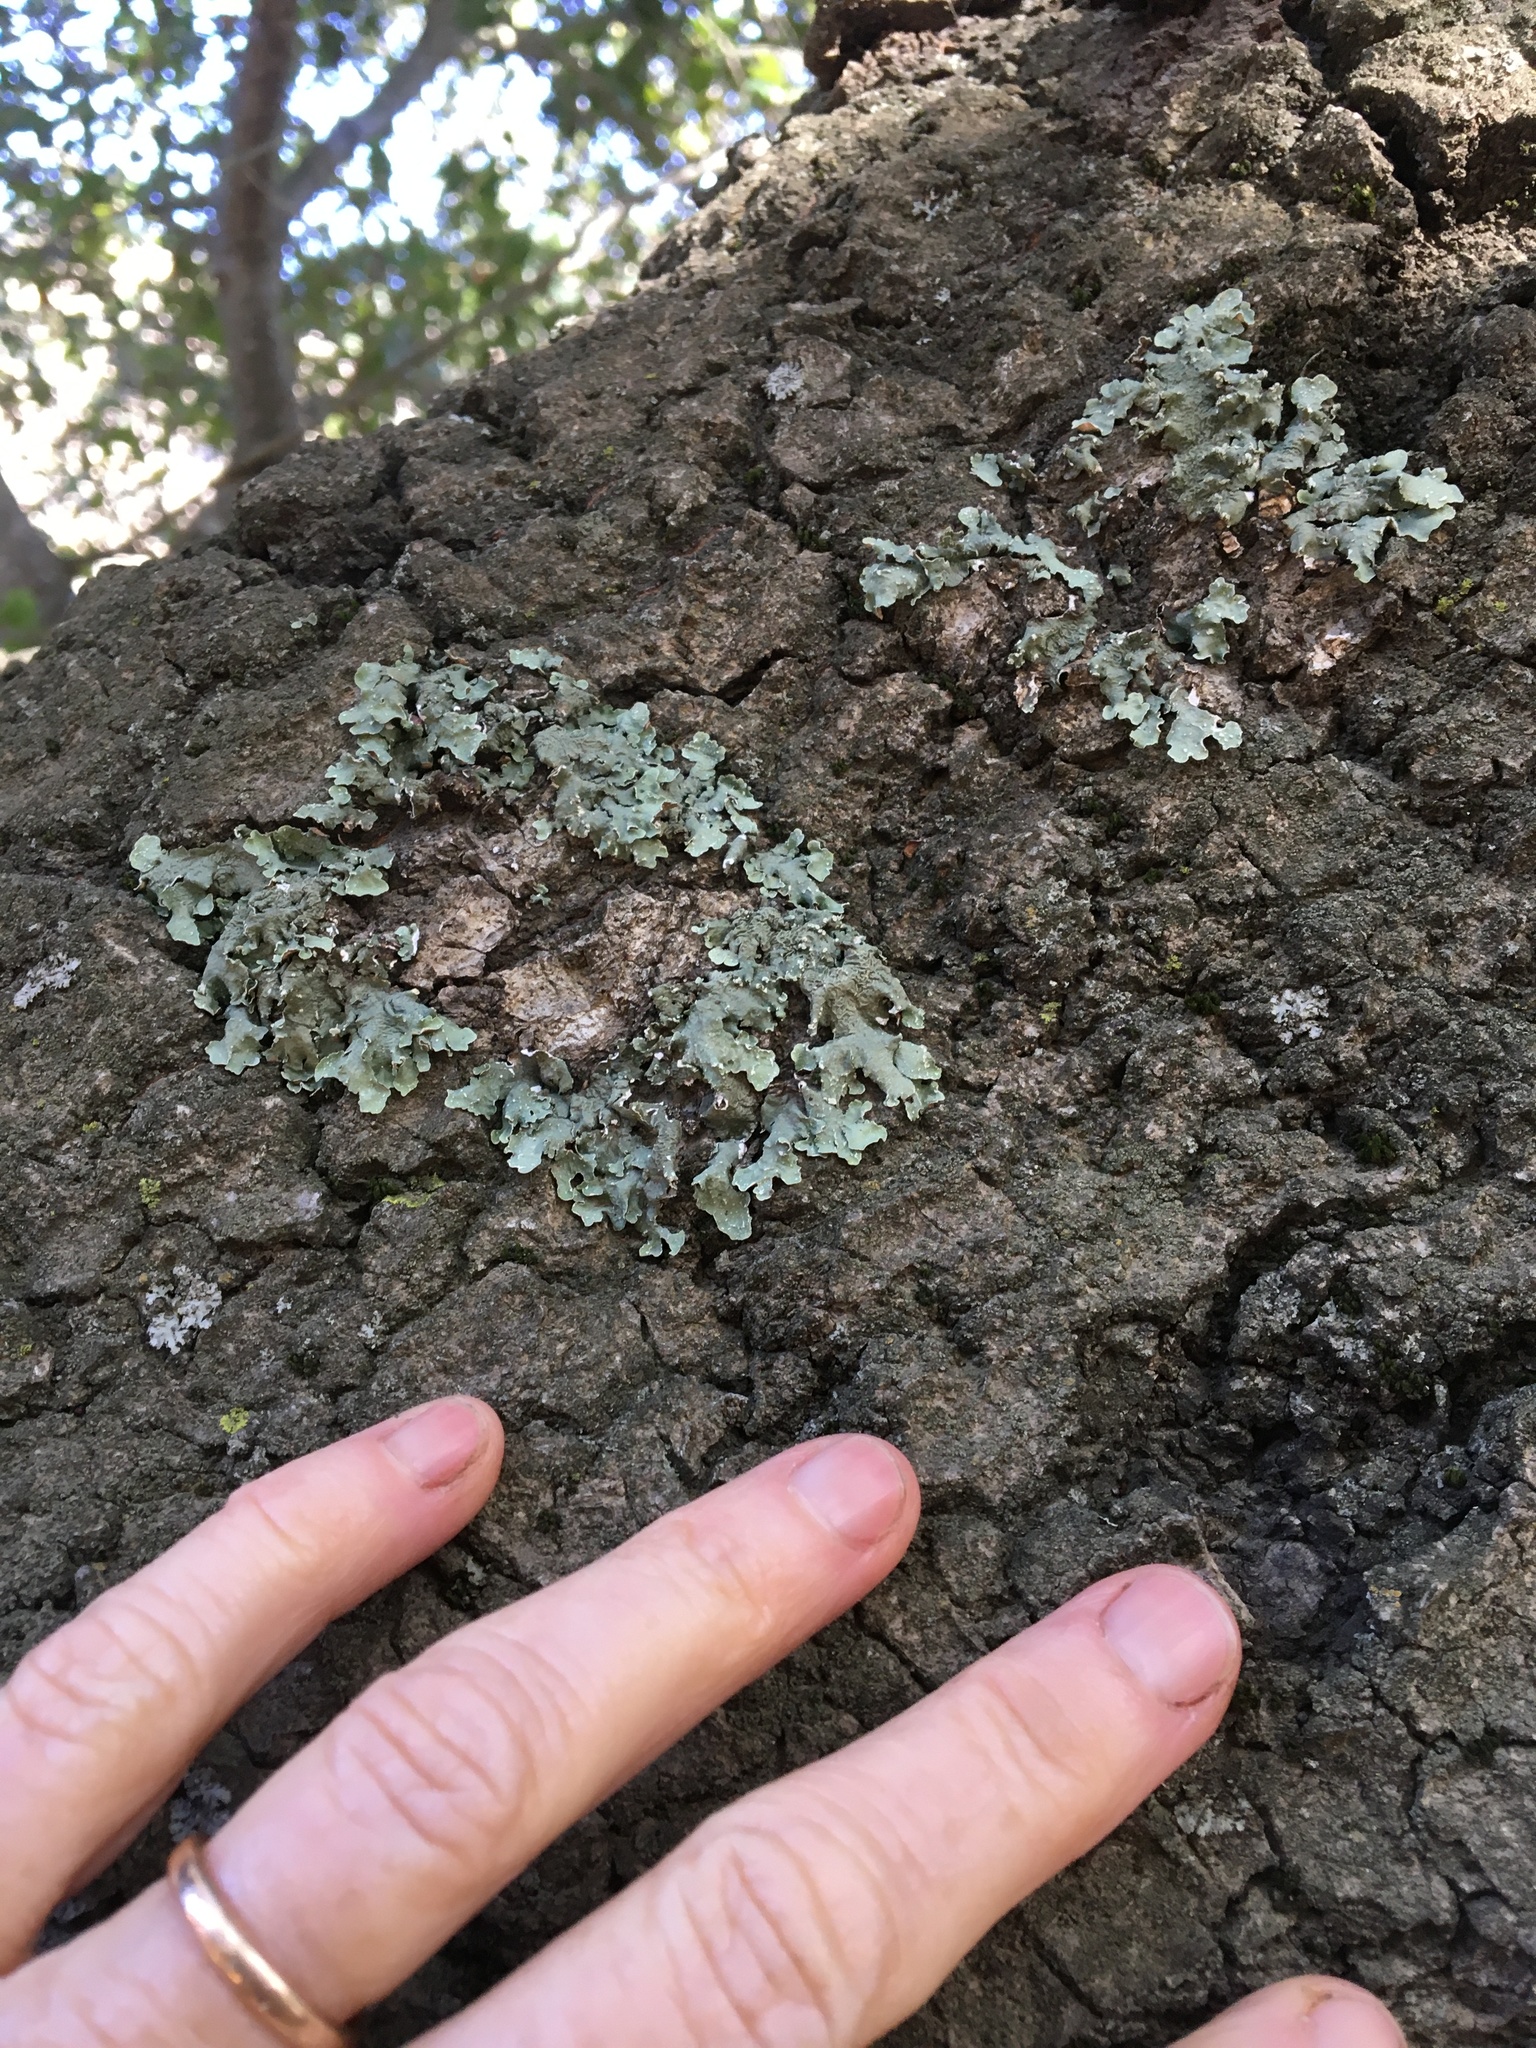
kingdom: Fungi
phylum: Ascomycota
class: Lecanoromycetes
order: Lecanorales
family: Parmeliaceae
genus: Flavopunctelia
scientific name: Flavopunctelia soredica
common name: Powder-edged speckled greenshield
